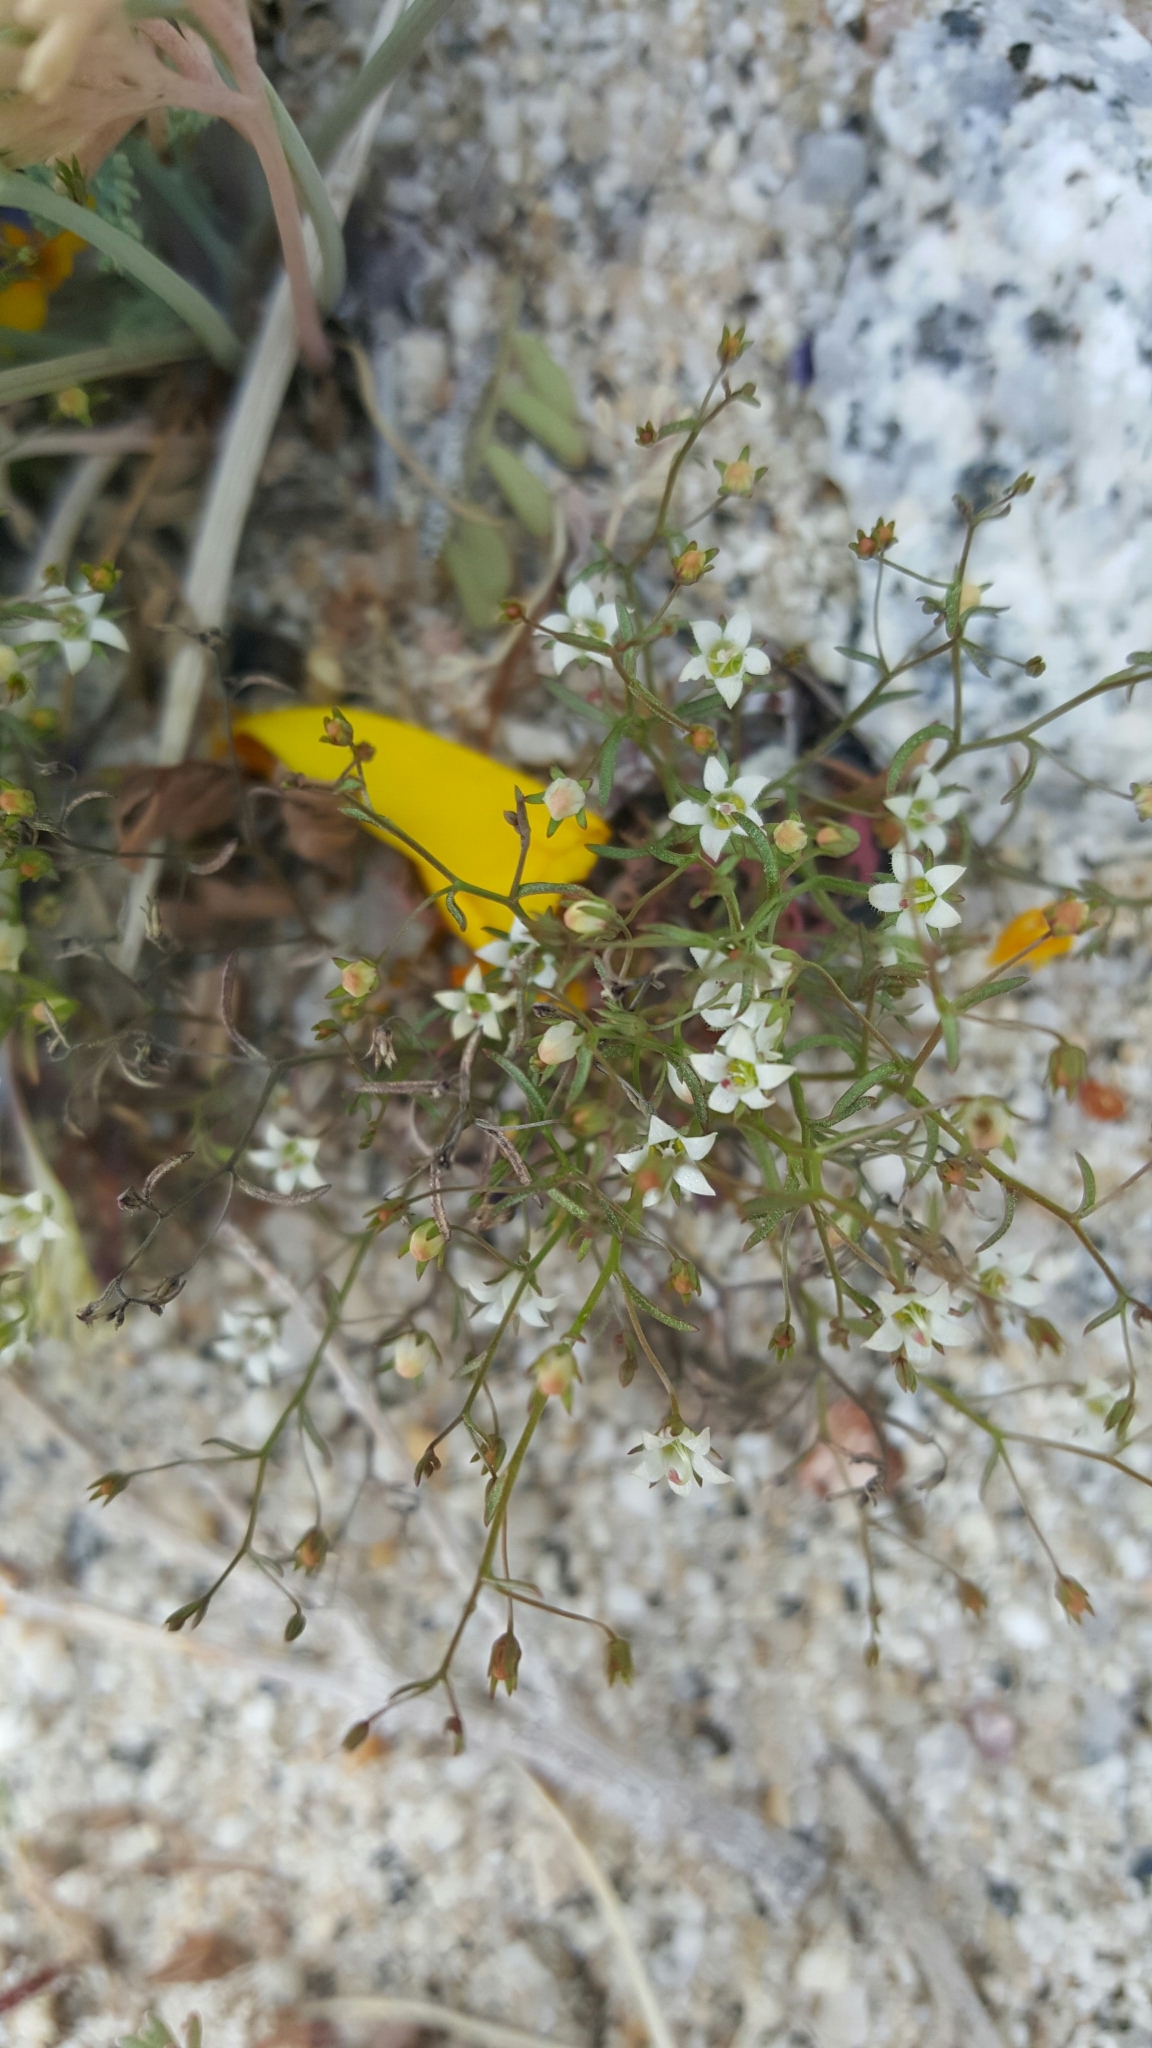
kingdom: Plantae
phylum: Tracheophyta
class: Magnoliopsida
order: Asterales
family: Campanulaceae
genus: Nemacladus
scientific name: Nemacladus glanduliferus
